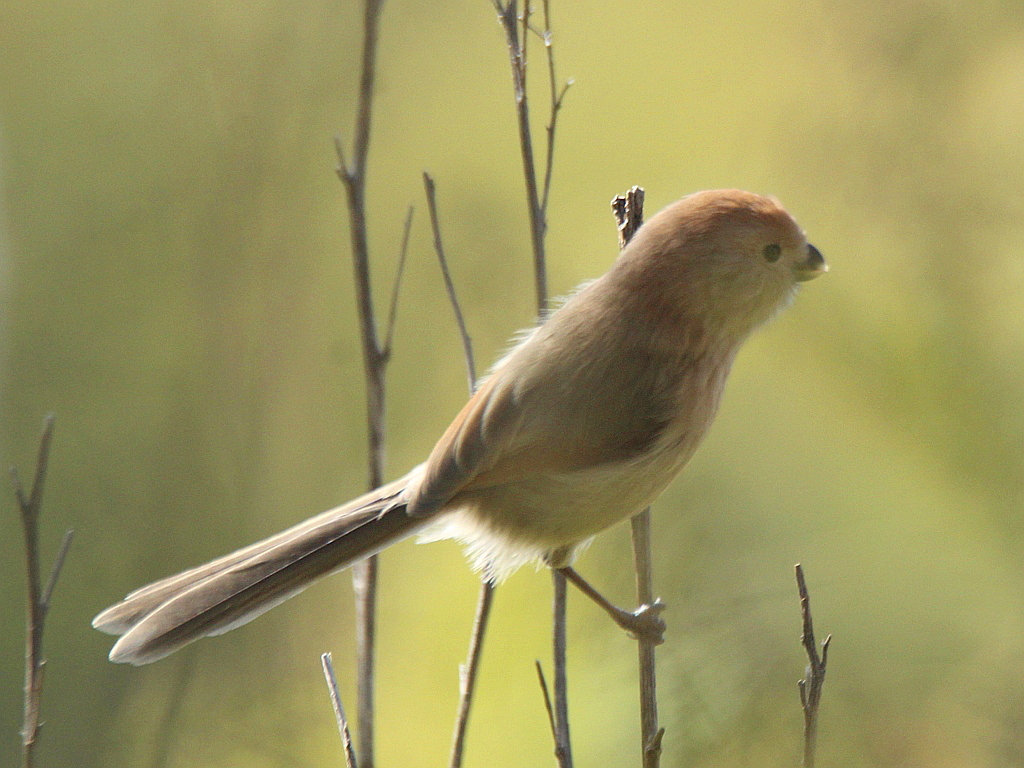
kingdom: Animalia
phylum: Chordata
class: Aves
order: Passeriformes
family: Sylviidae
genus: Sinosuthora
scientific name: Sinosuthora webbiana
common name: Vinous-throated parrotbill
